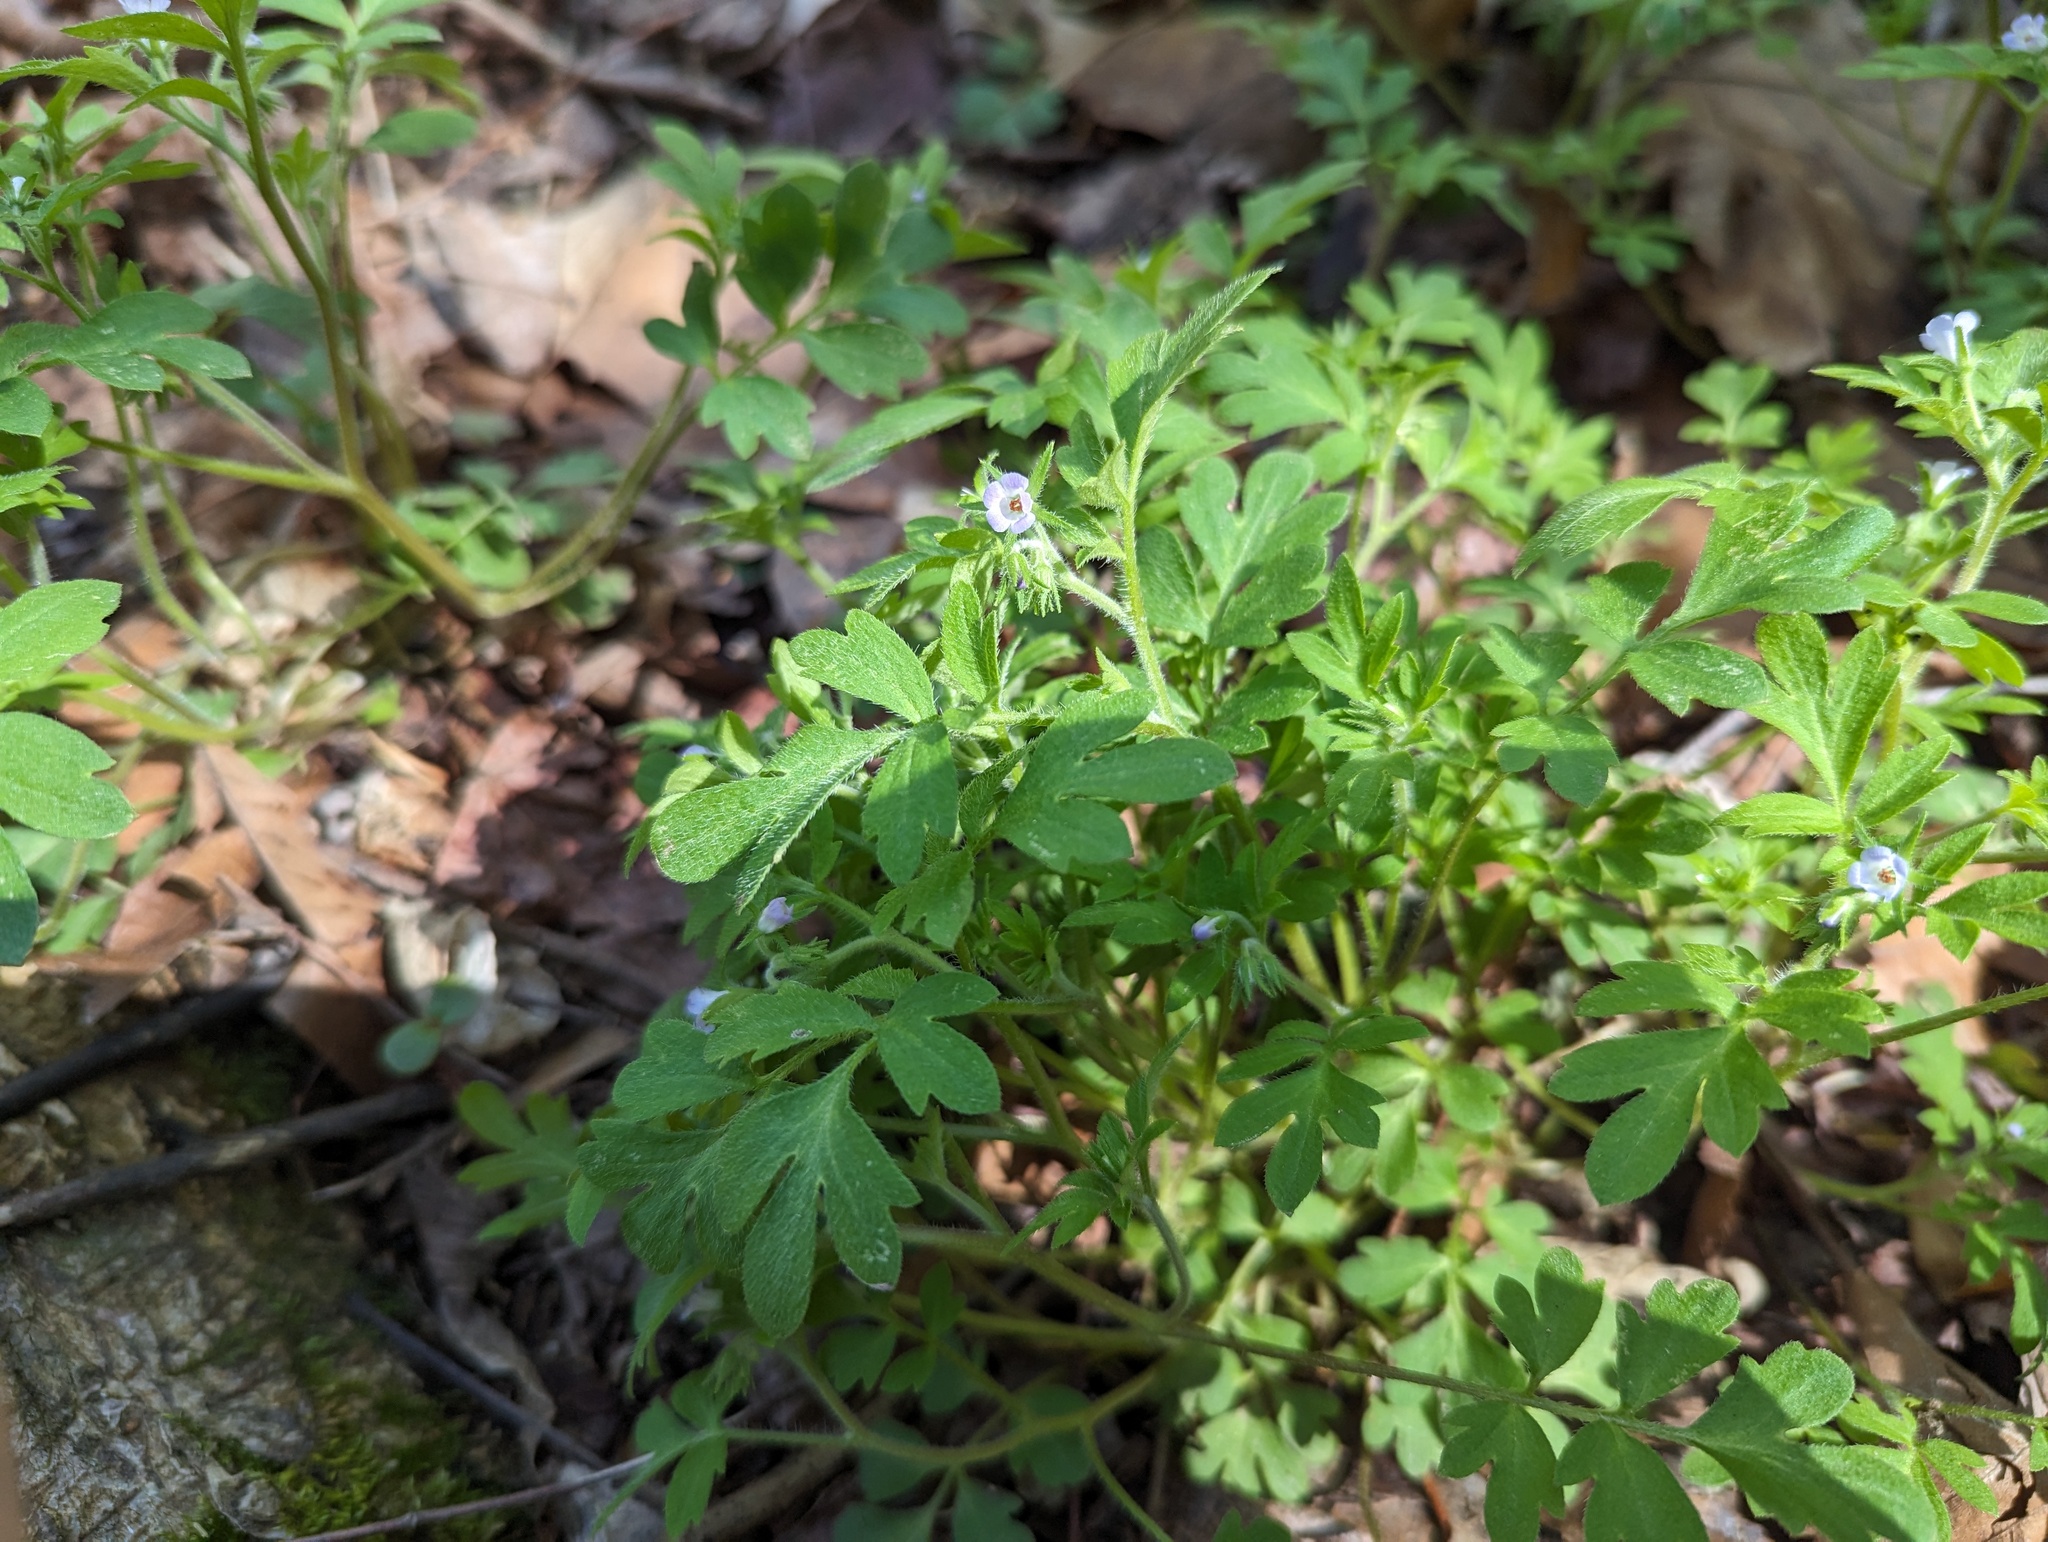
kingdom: Plantae
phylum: Tracheophyta
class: Magnoliopsida
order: Boraginales
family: Hydrophyllaceae
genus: Phacelia
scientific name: Phacelia covillei
